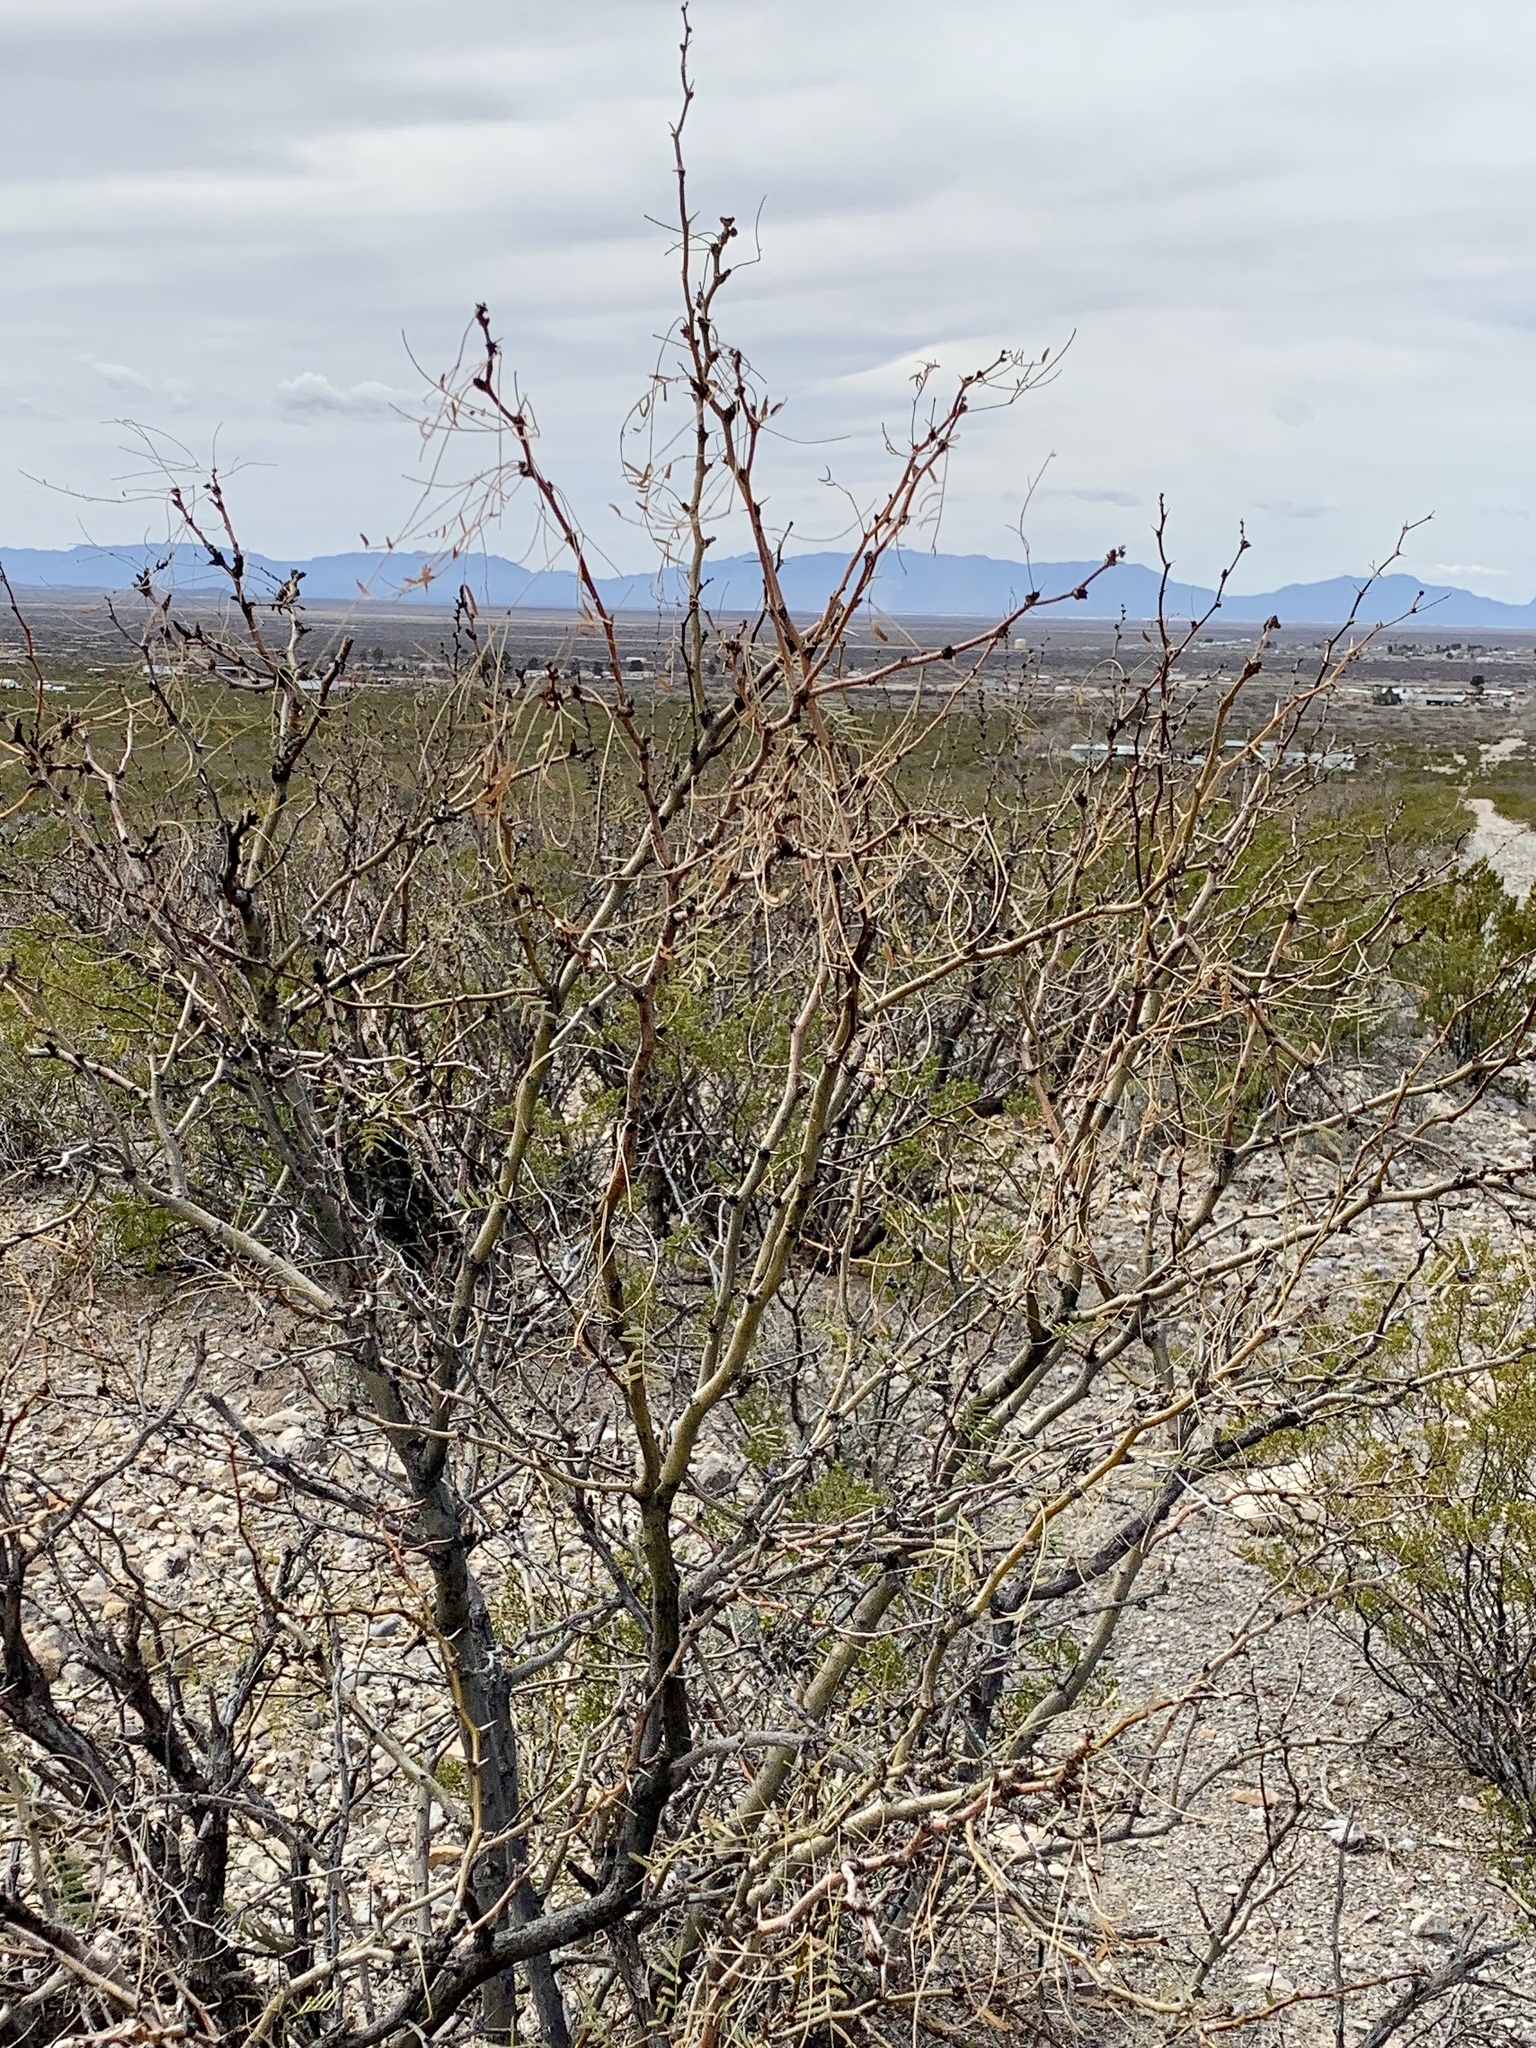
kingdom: Plantae
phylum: Tracheophyta
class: Magnoliopsida
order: Fabales
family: Fabaceae
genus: Prosopis
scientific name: Prosopis glandulosa
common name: Honey mesquite
